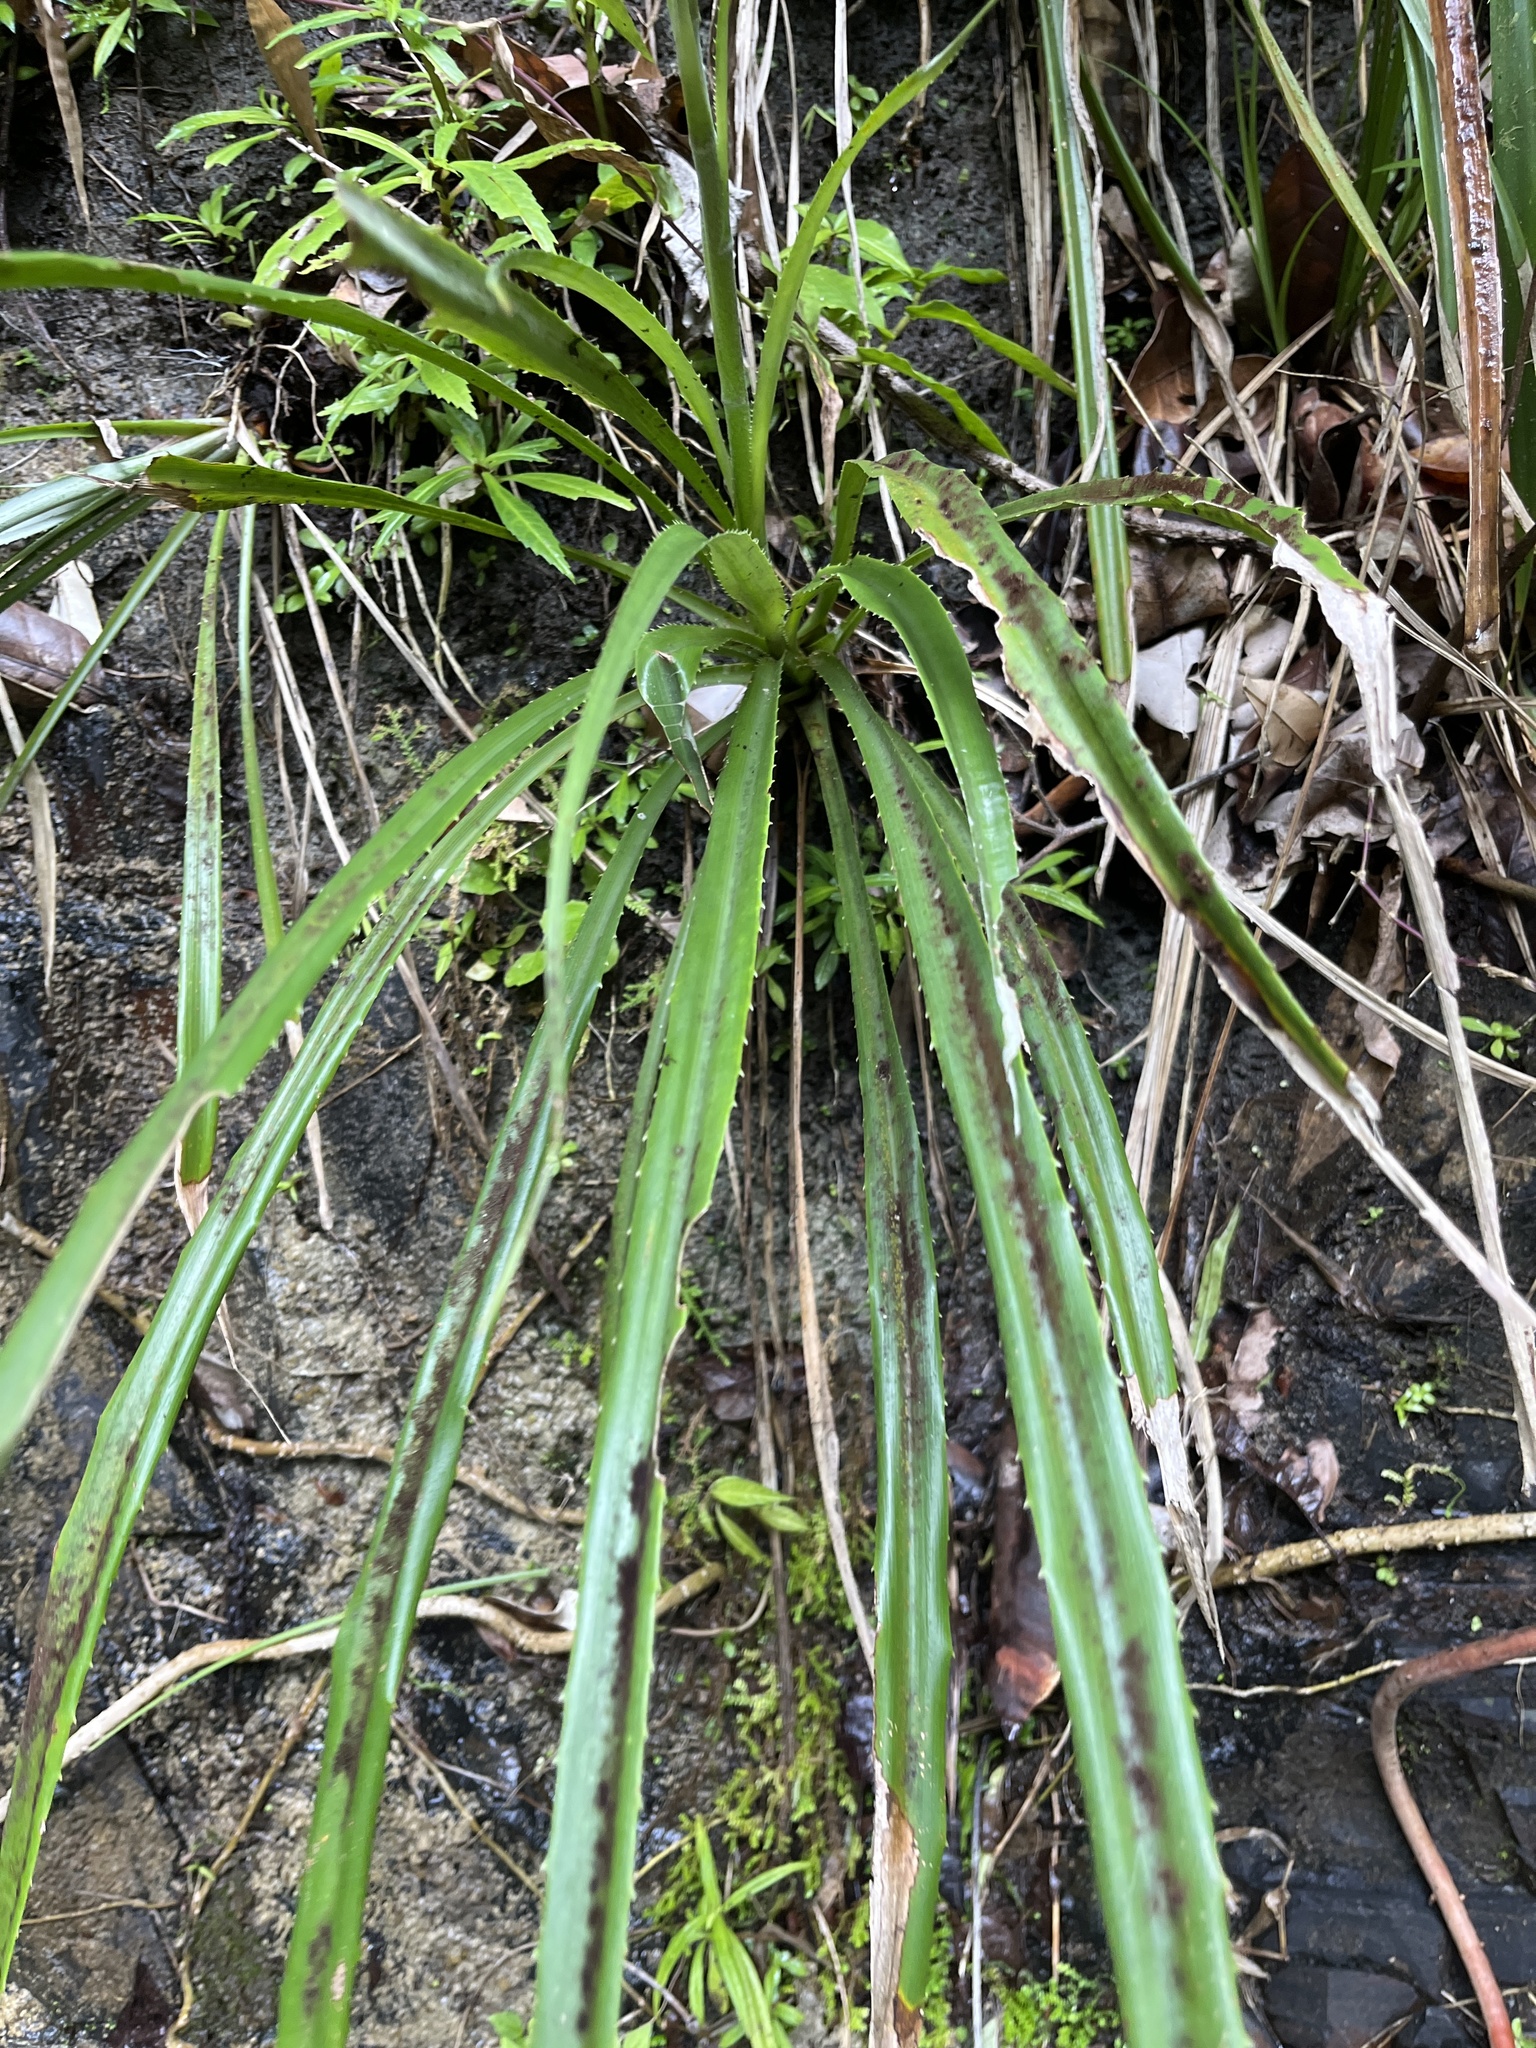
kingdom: Plantae
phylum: Tracheophyta
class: Liliopsida
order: Poales
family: Bromeliaceae
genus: Pitcairnia
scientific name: Pitcairnia angustifolia
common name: Clapper
